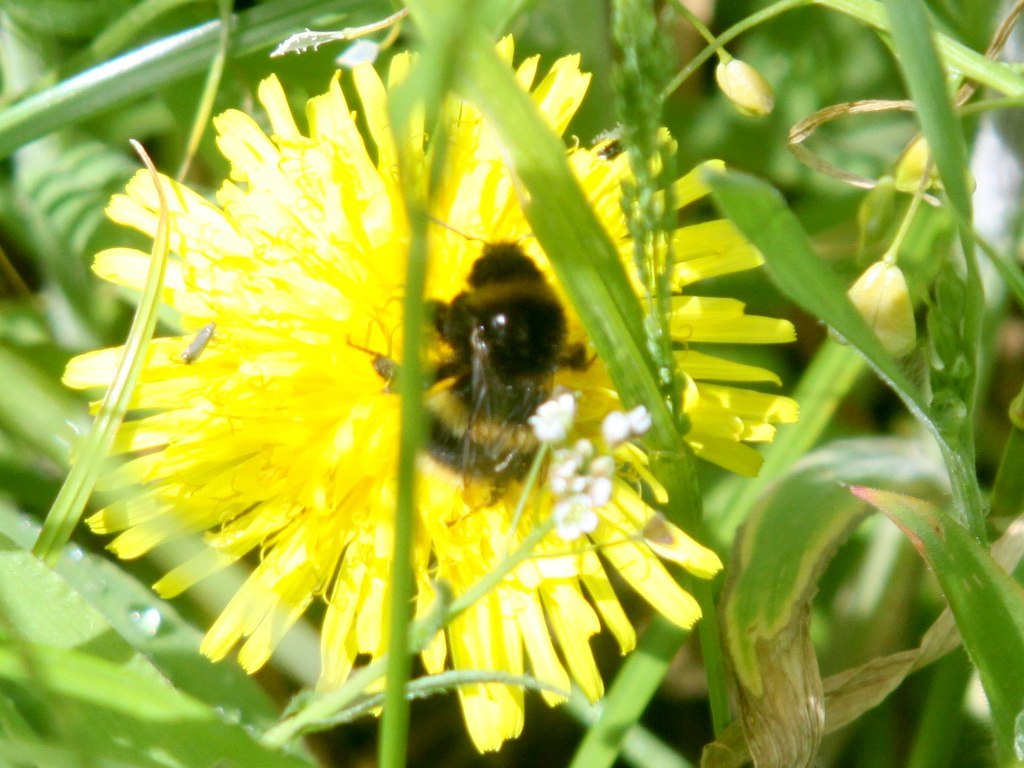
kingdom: Animalia
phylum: Arthropoda
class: Insecta
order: Hymenoptera
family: Apidae
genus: Bombus
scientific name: Bombus terrestris
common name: Buff-tailed bumblebee
